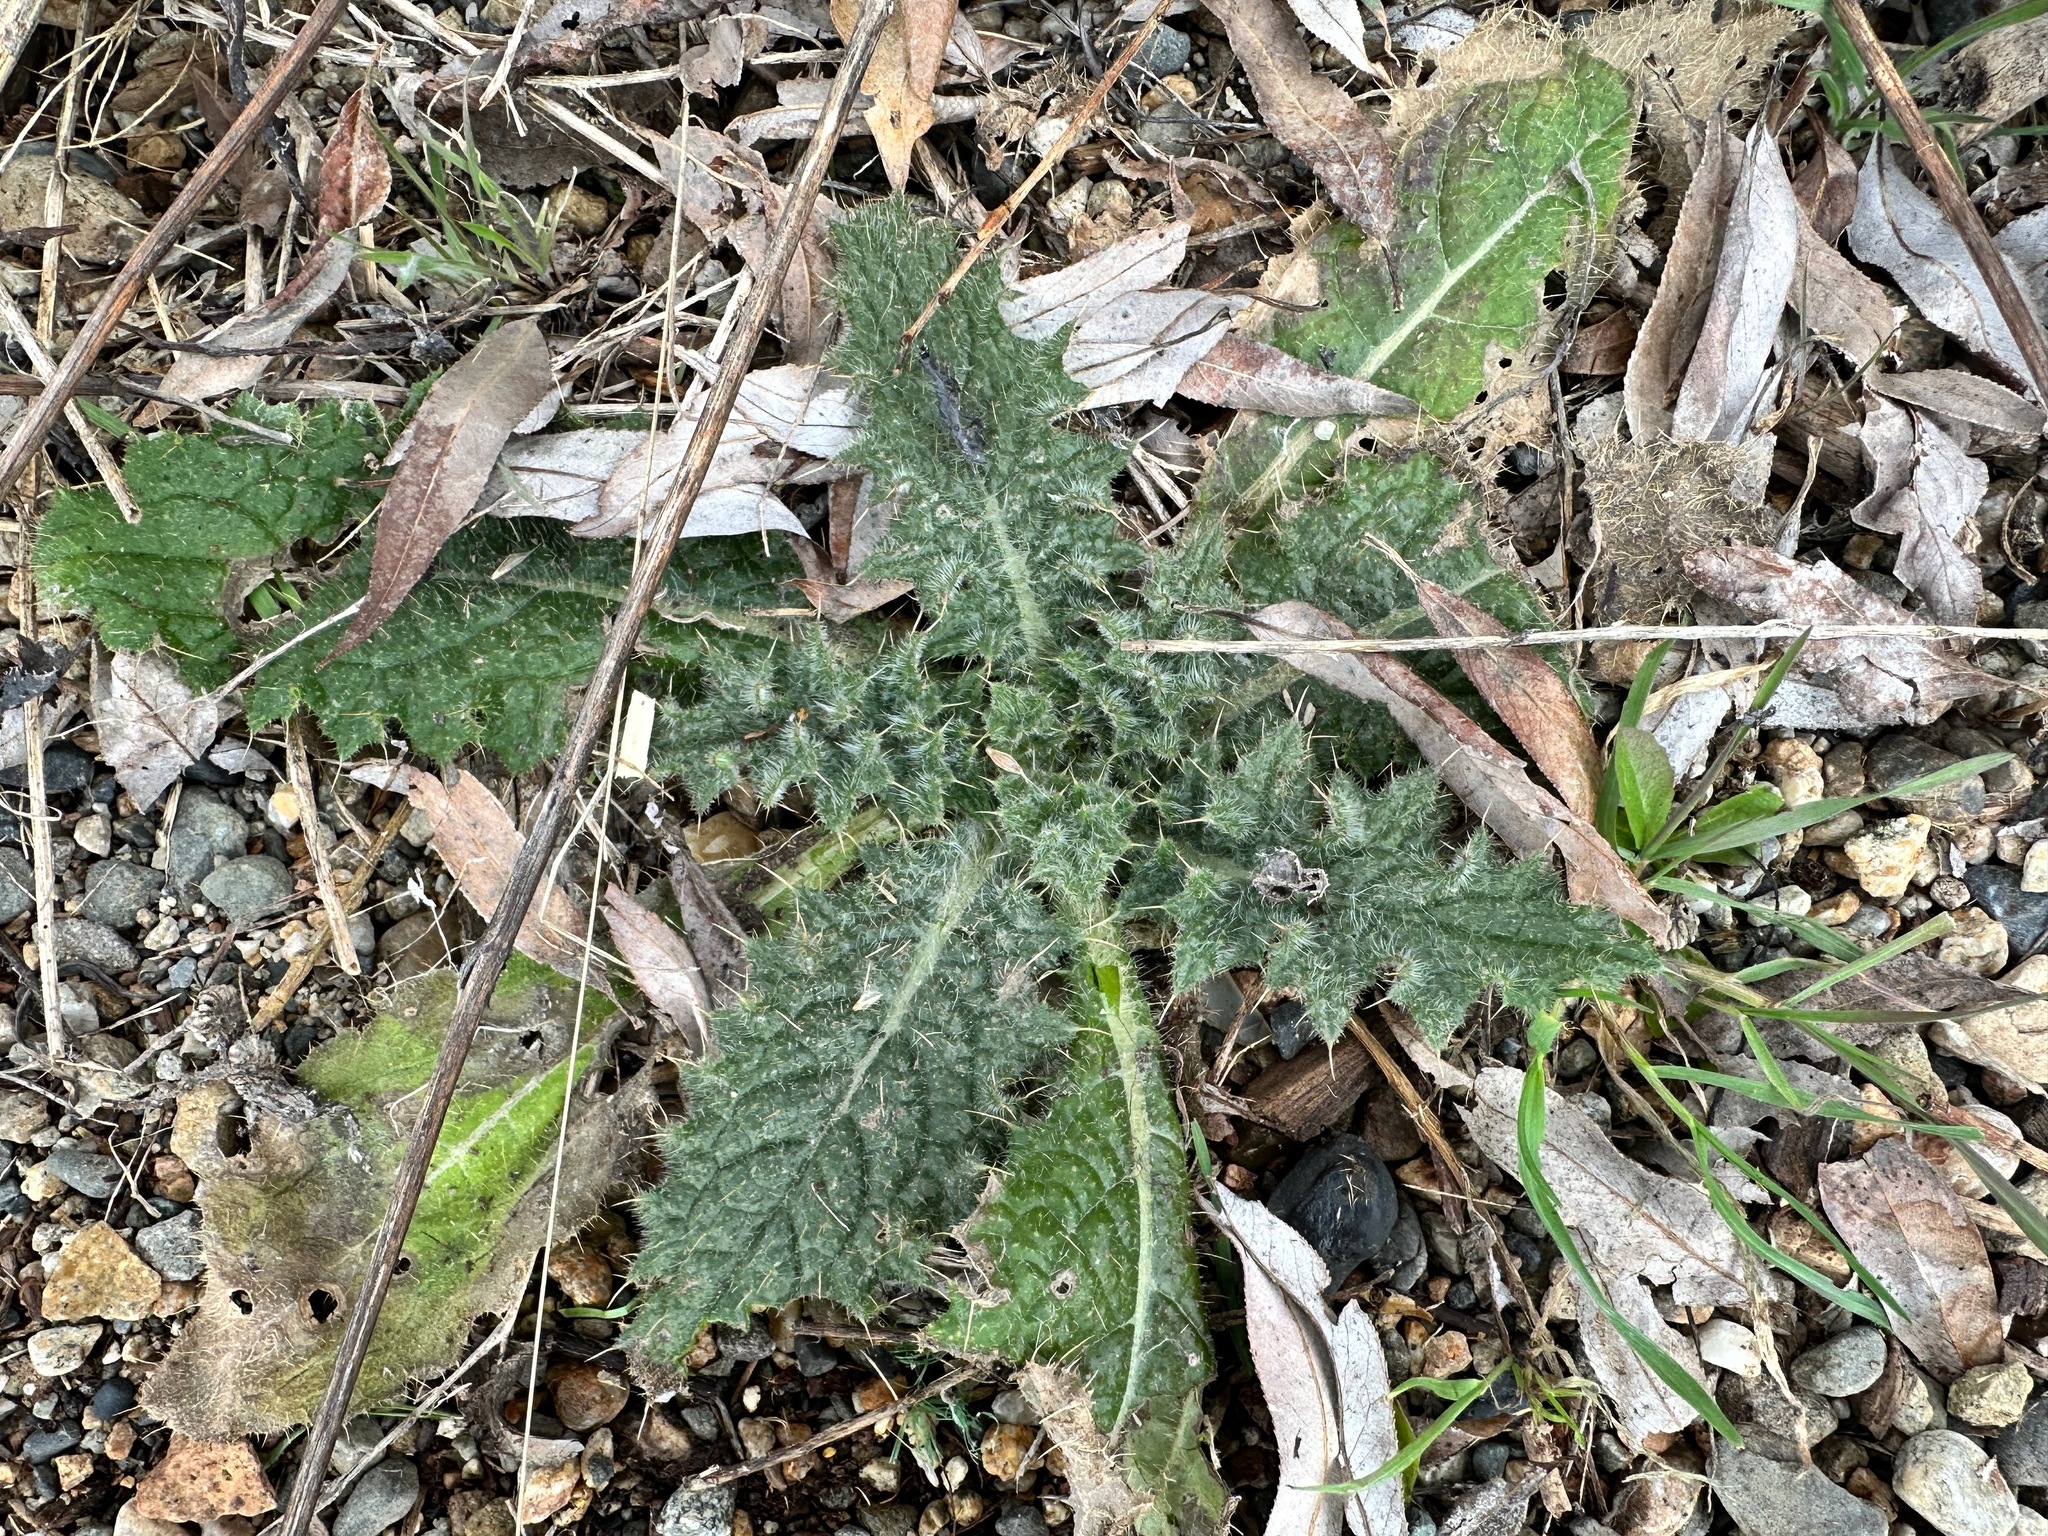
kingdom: Plantae
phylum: Tracheophyta
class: Magnoliopsida
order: Asterales
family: Asteraceae
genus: Cirsium
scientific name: Cirsium vulgare
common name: Bull thistle
